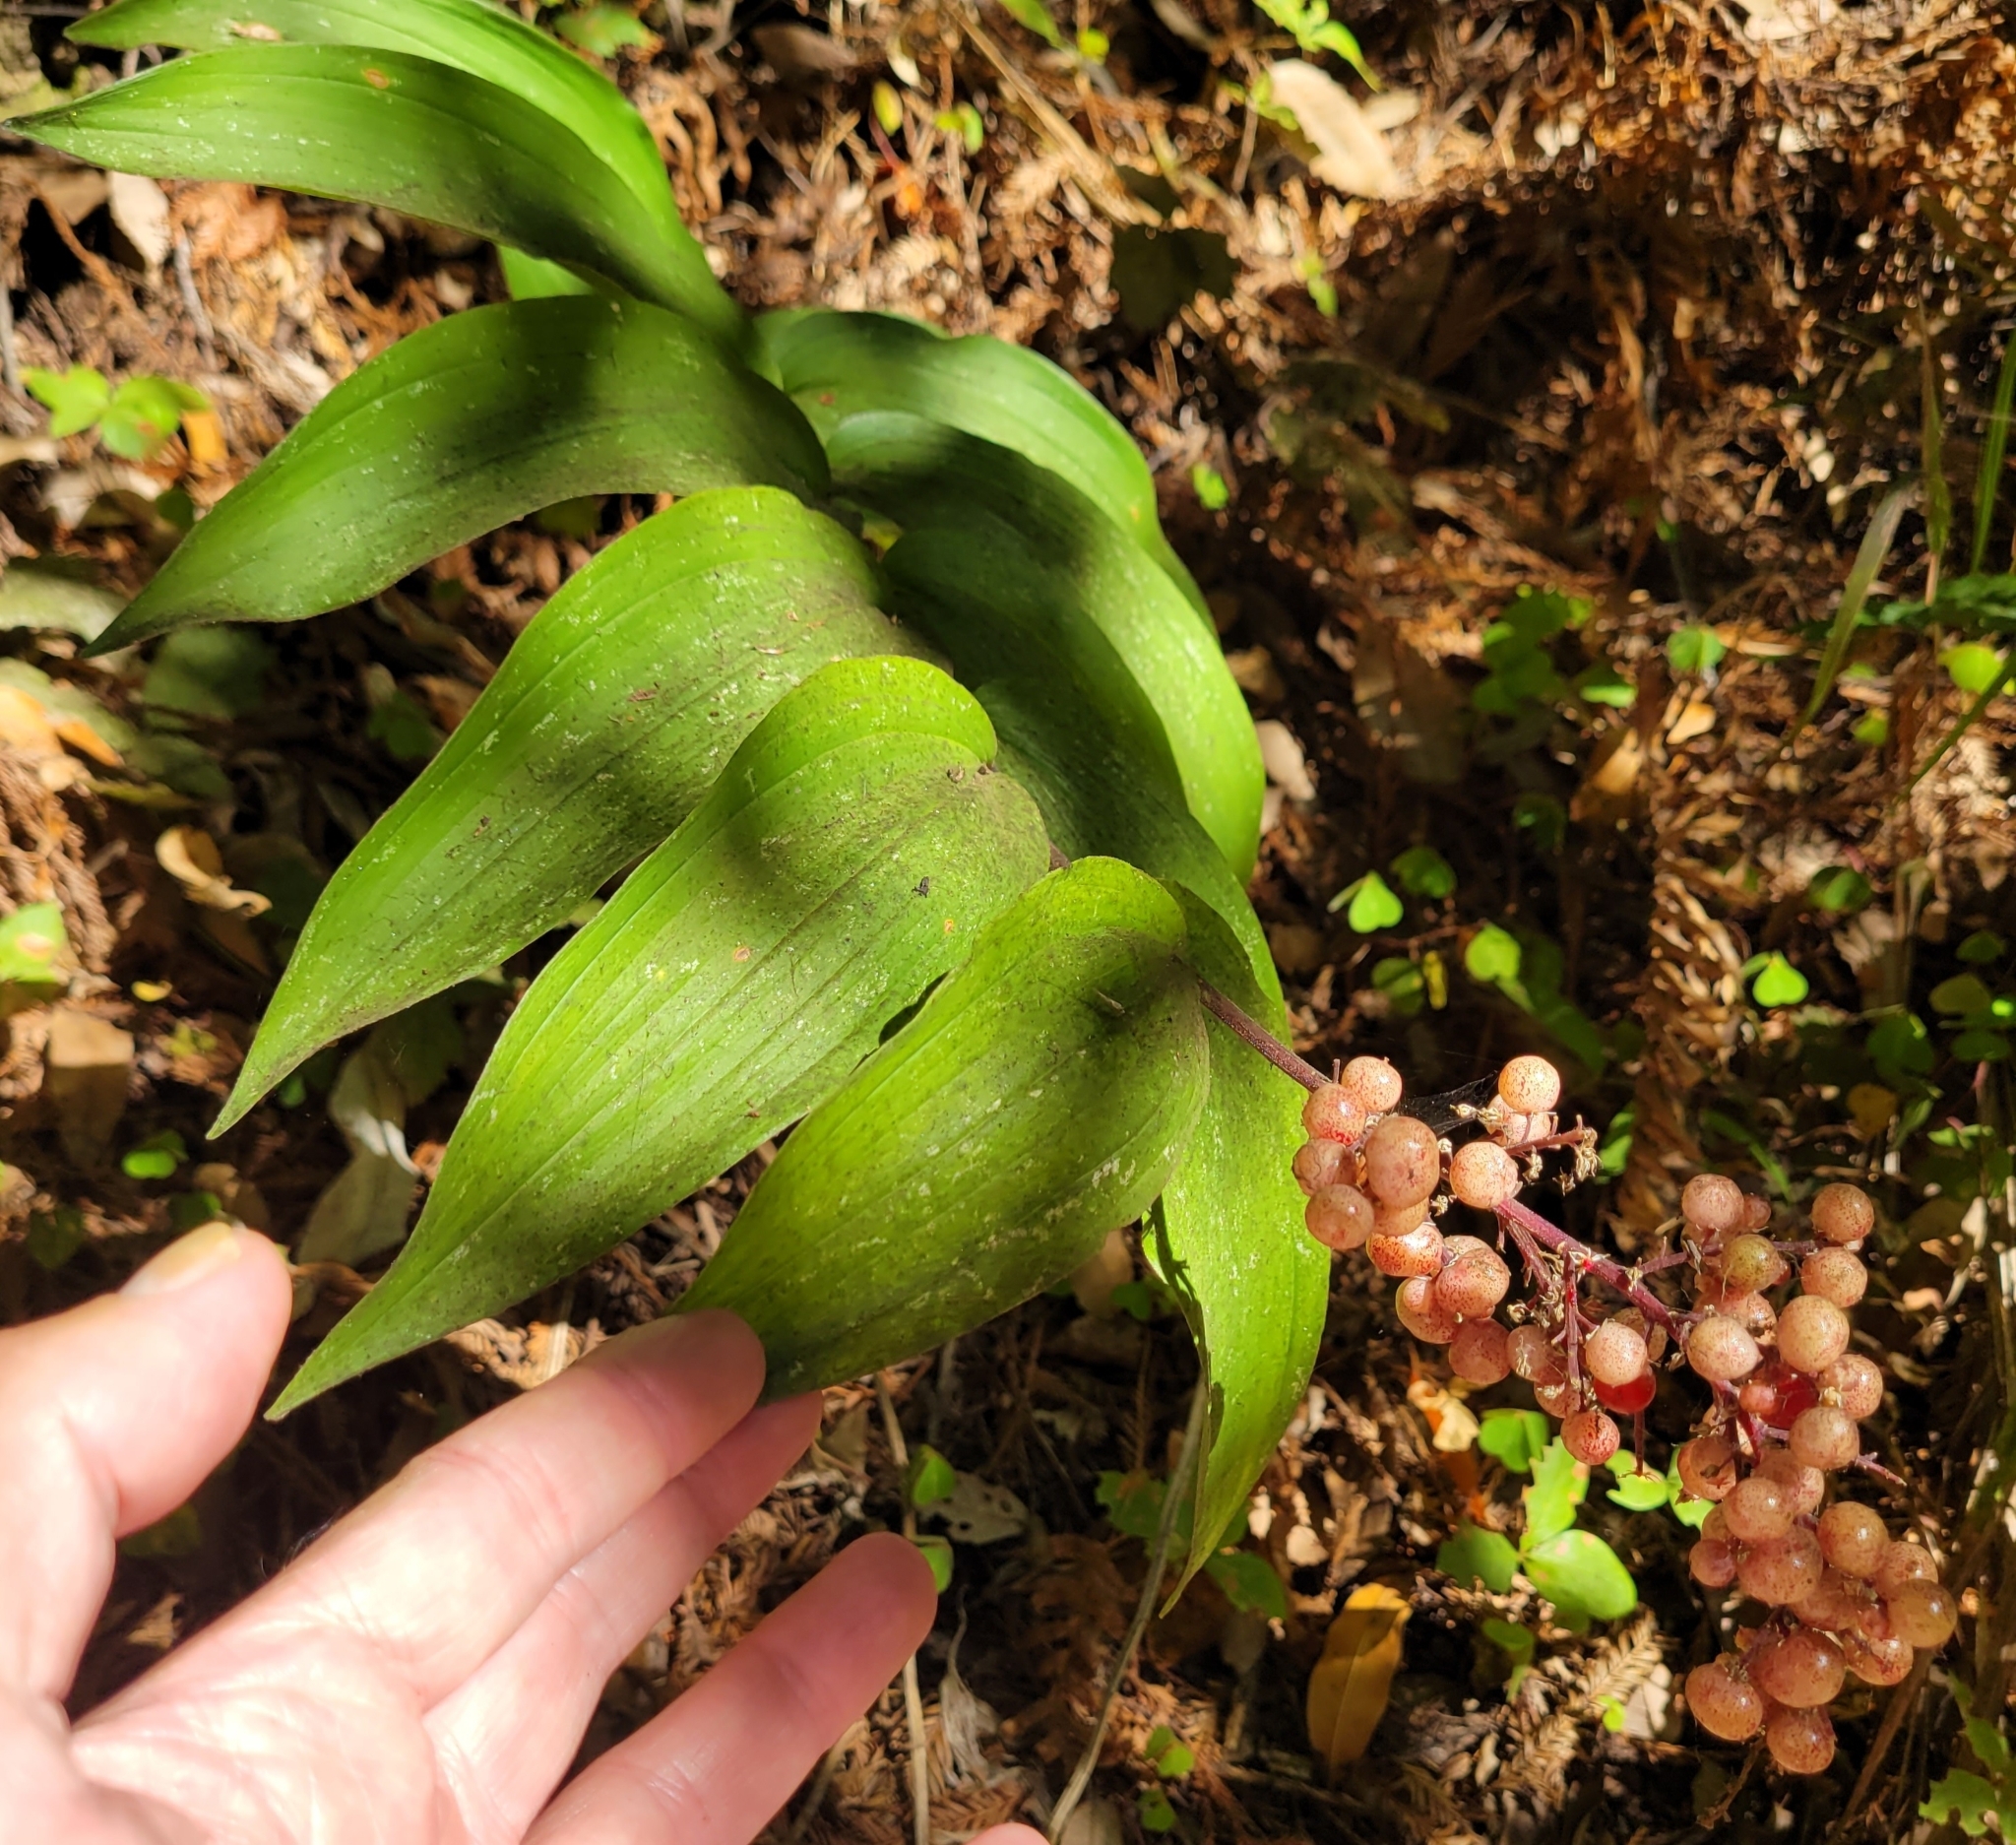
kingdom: Plantae
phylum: Tracheophyta
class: Liliopsida
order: Asparagales
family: Asparagaceae
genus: Maianthemum
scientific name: Maianthemum racemosum
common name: False spikenard
